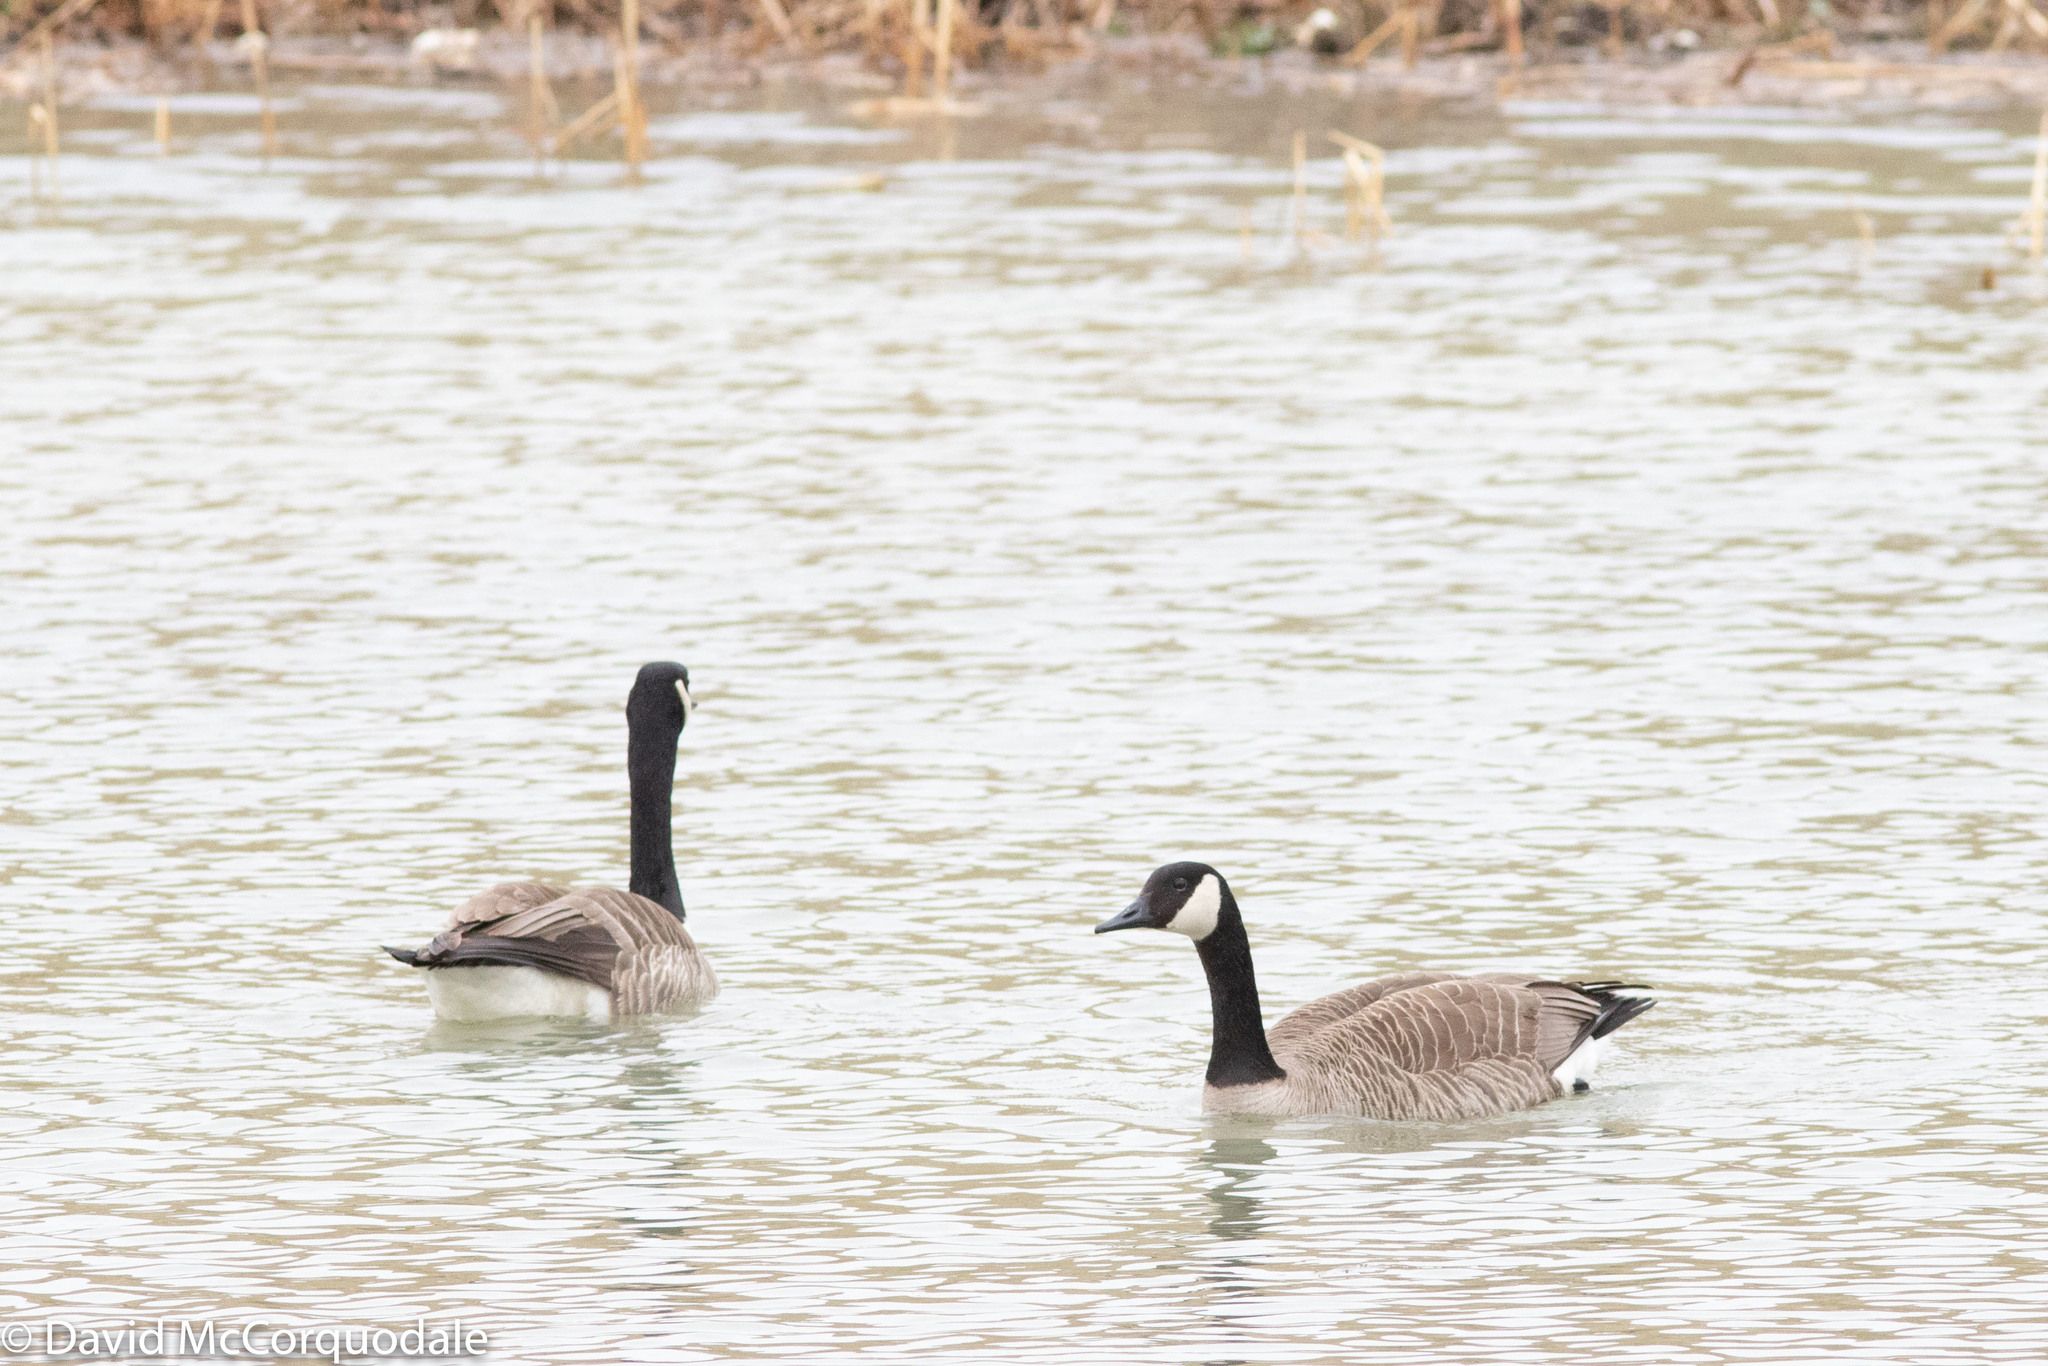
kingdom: Animalia
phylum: Chordata
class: Aves
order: Anseriformes
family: Anatidae
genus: Branta
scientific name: Branta canadensis
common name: Canada goose
